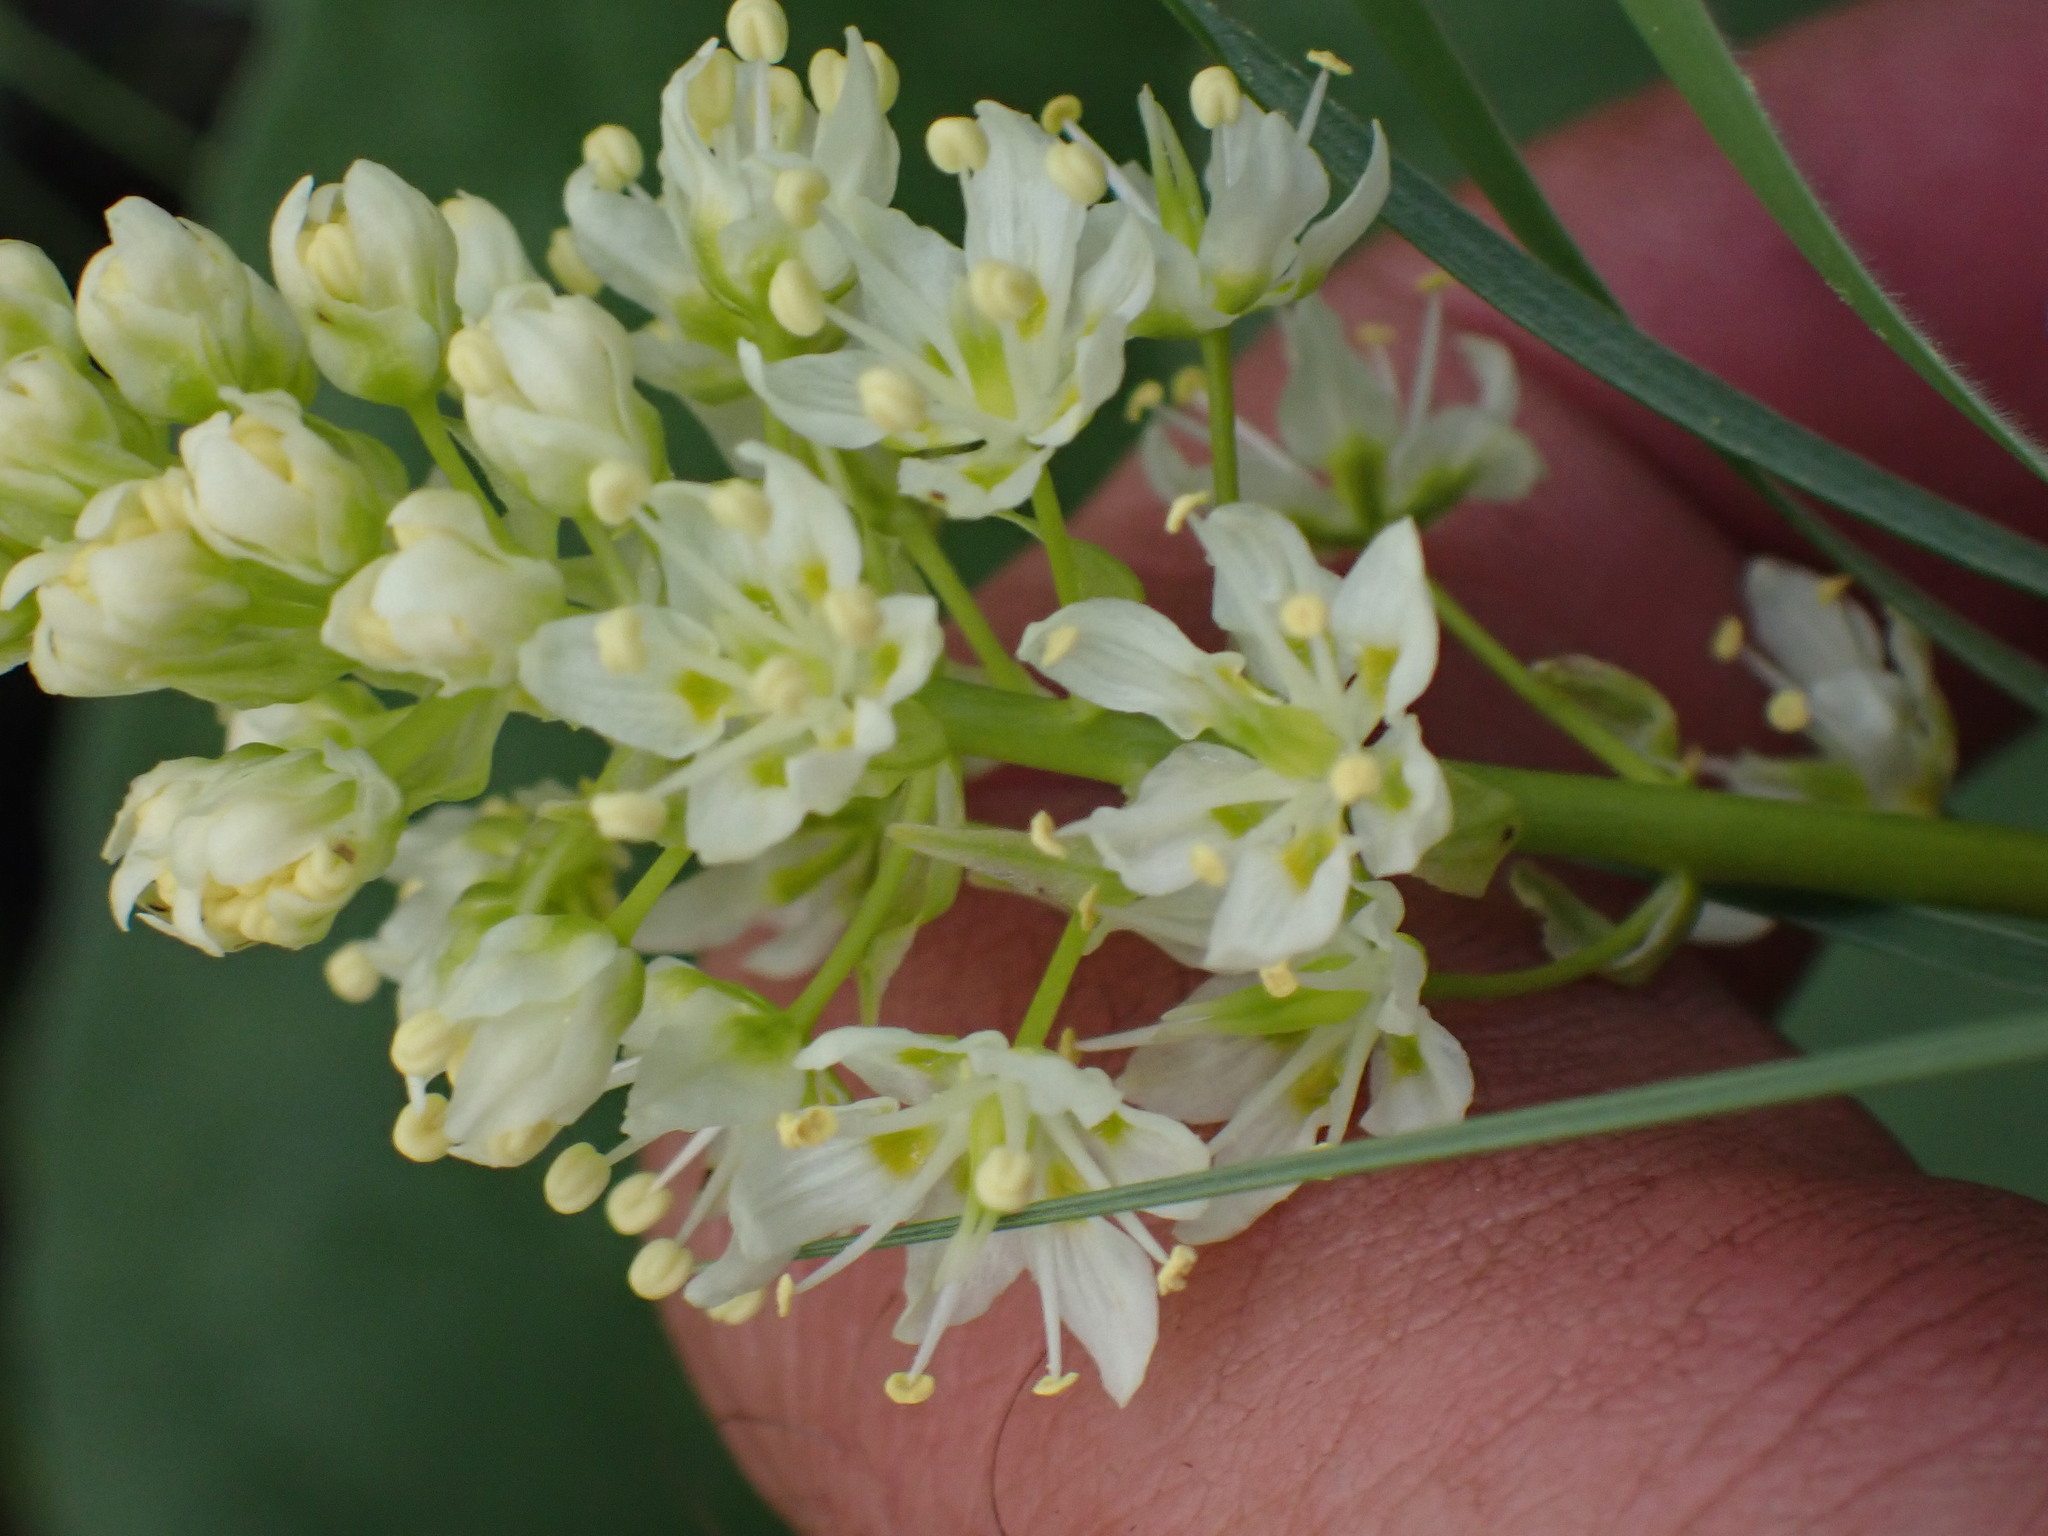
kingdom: Plantae
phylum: Tracheophyta
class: Liliopsida
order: Liliales
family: Melanthiaceae
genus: Toxicoscordion
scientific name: Toxicoscordion venenosum
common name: Meadow death camas
